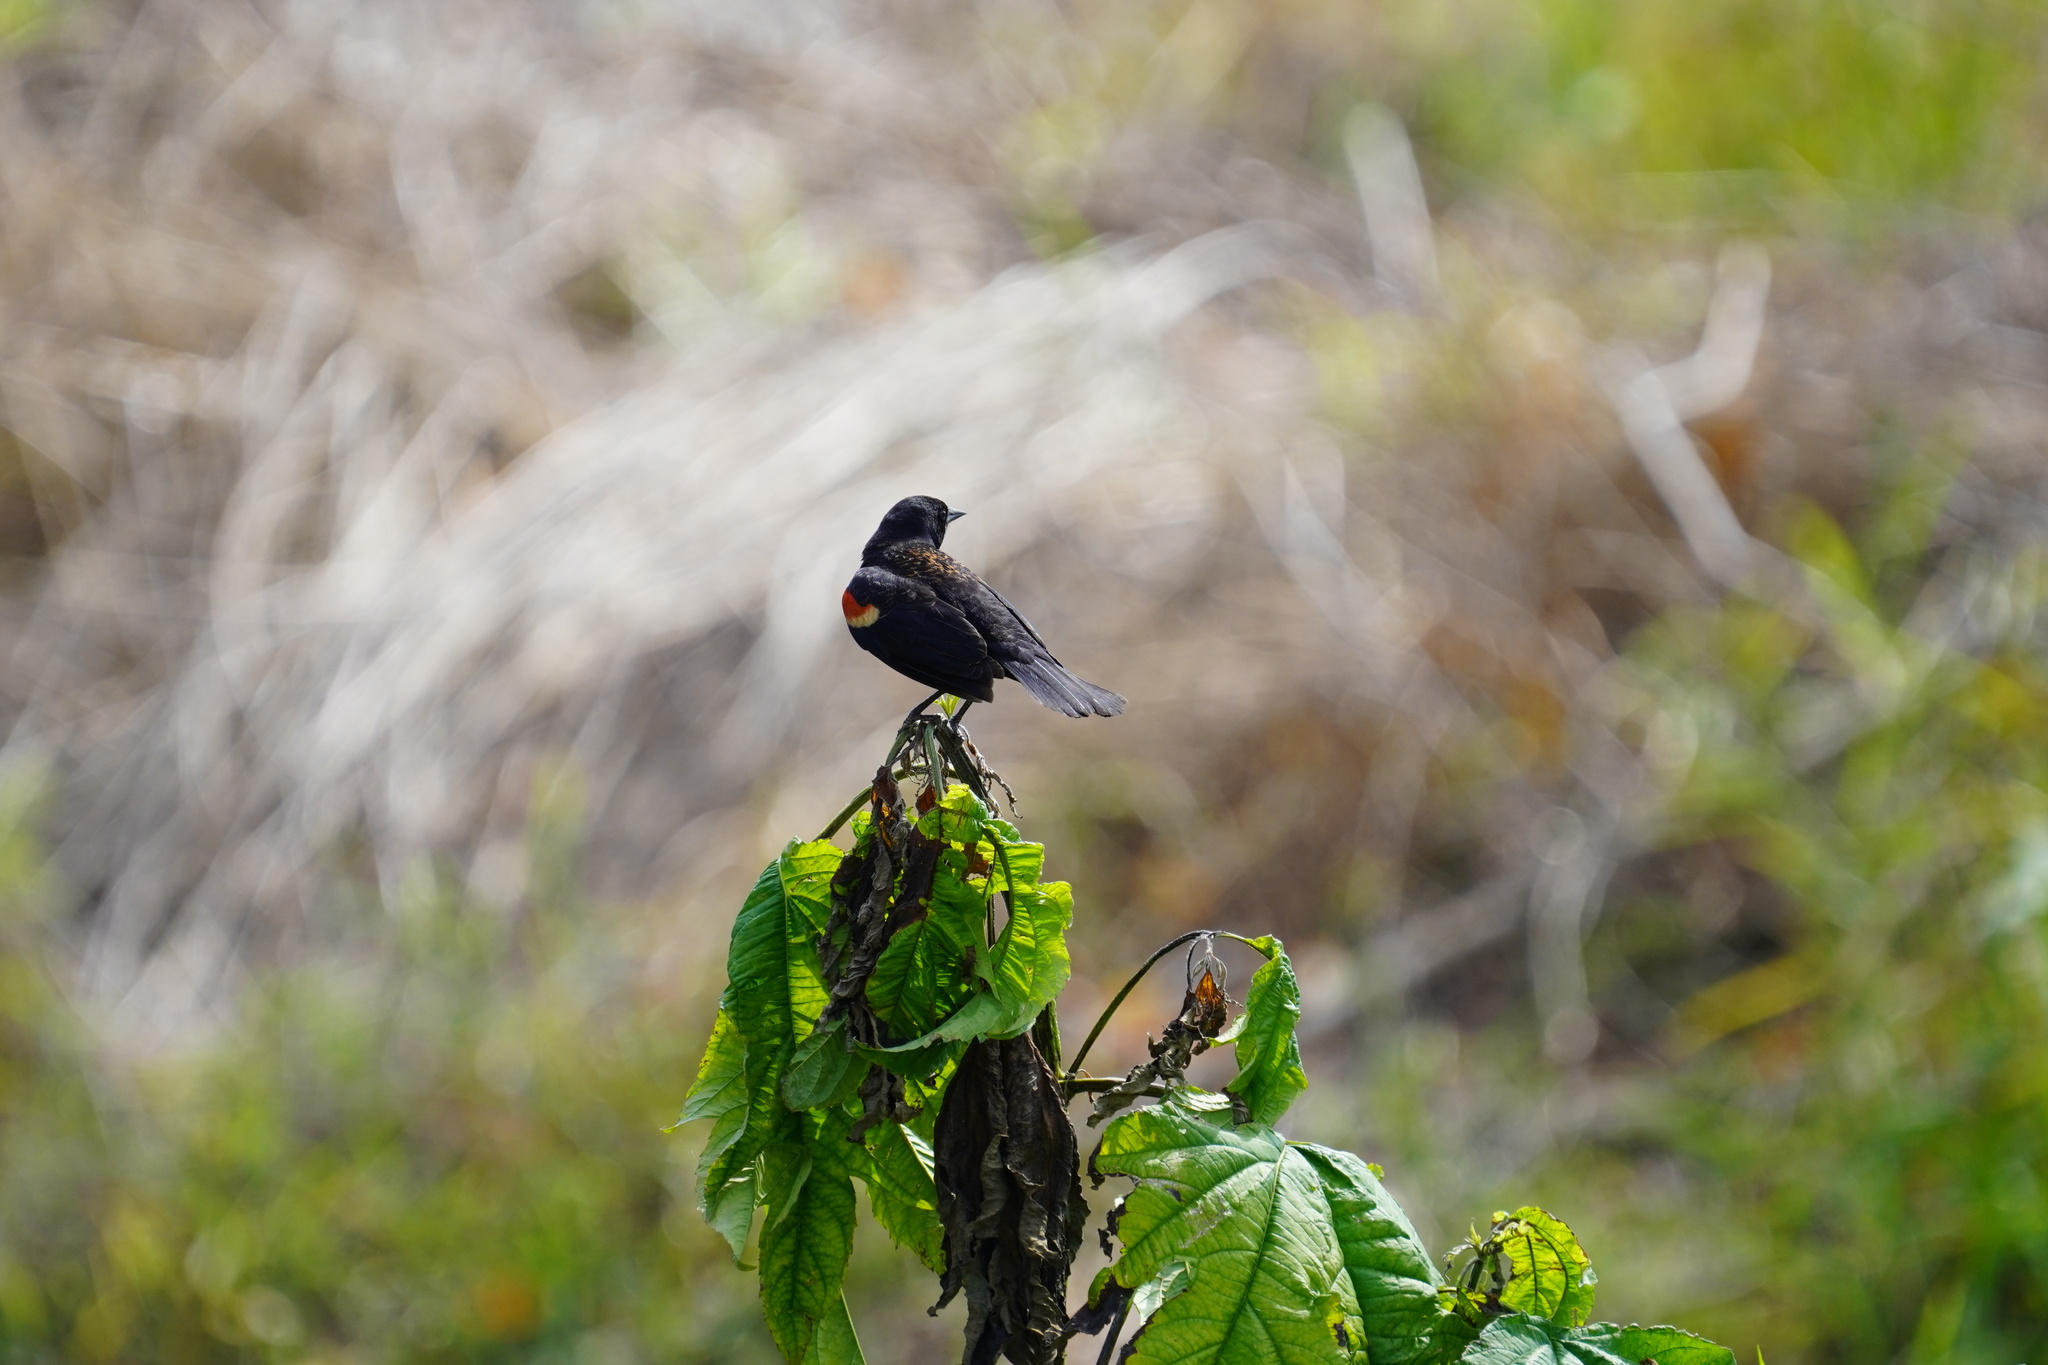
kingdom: Animalia
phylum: Chordata
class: Aves
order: Passeriformes
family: Icteridae
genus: Agelaius
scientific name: Agelaius phoeniceus
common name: Red-winged blackbird
